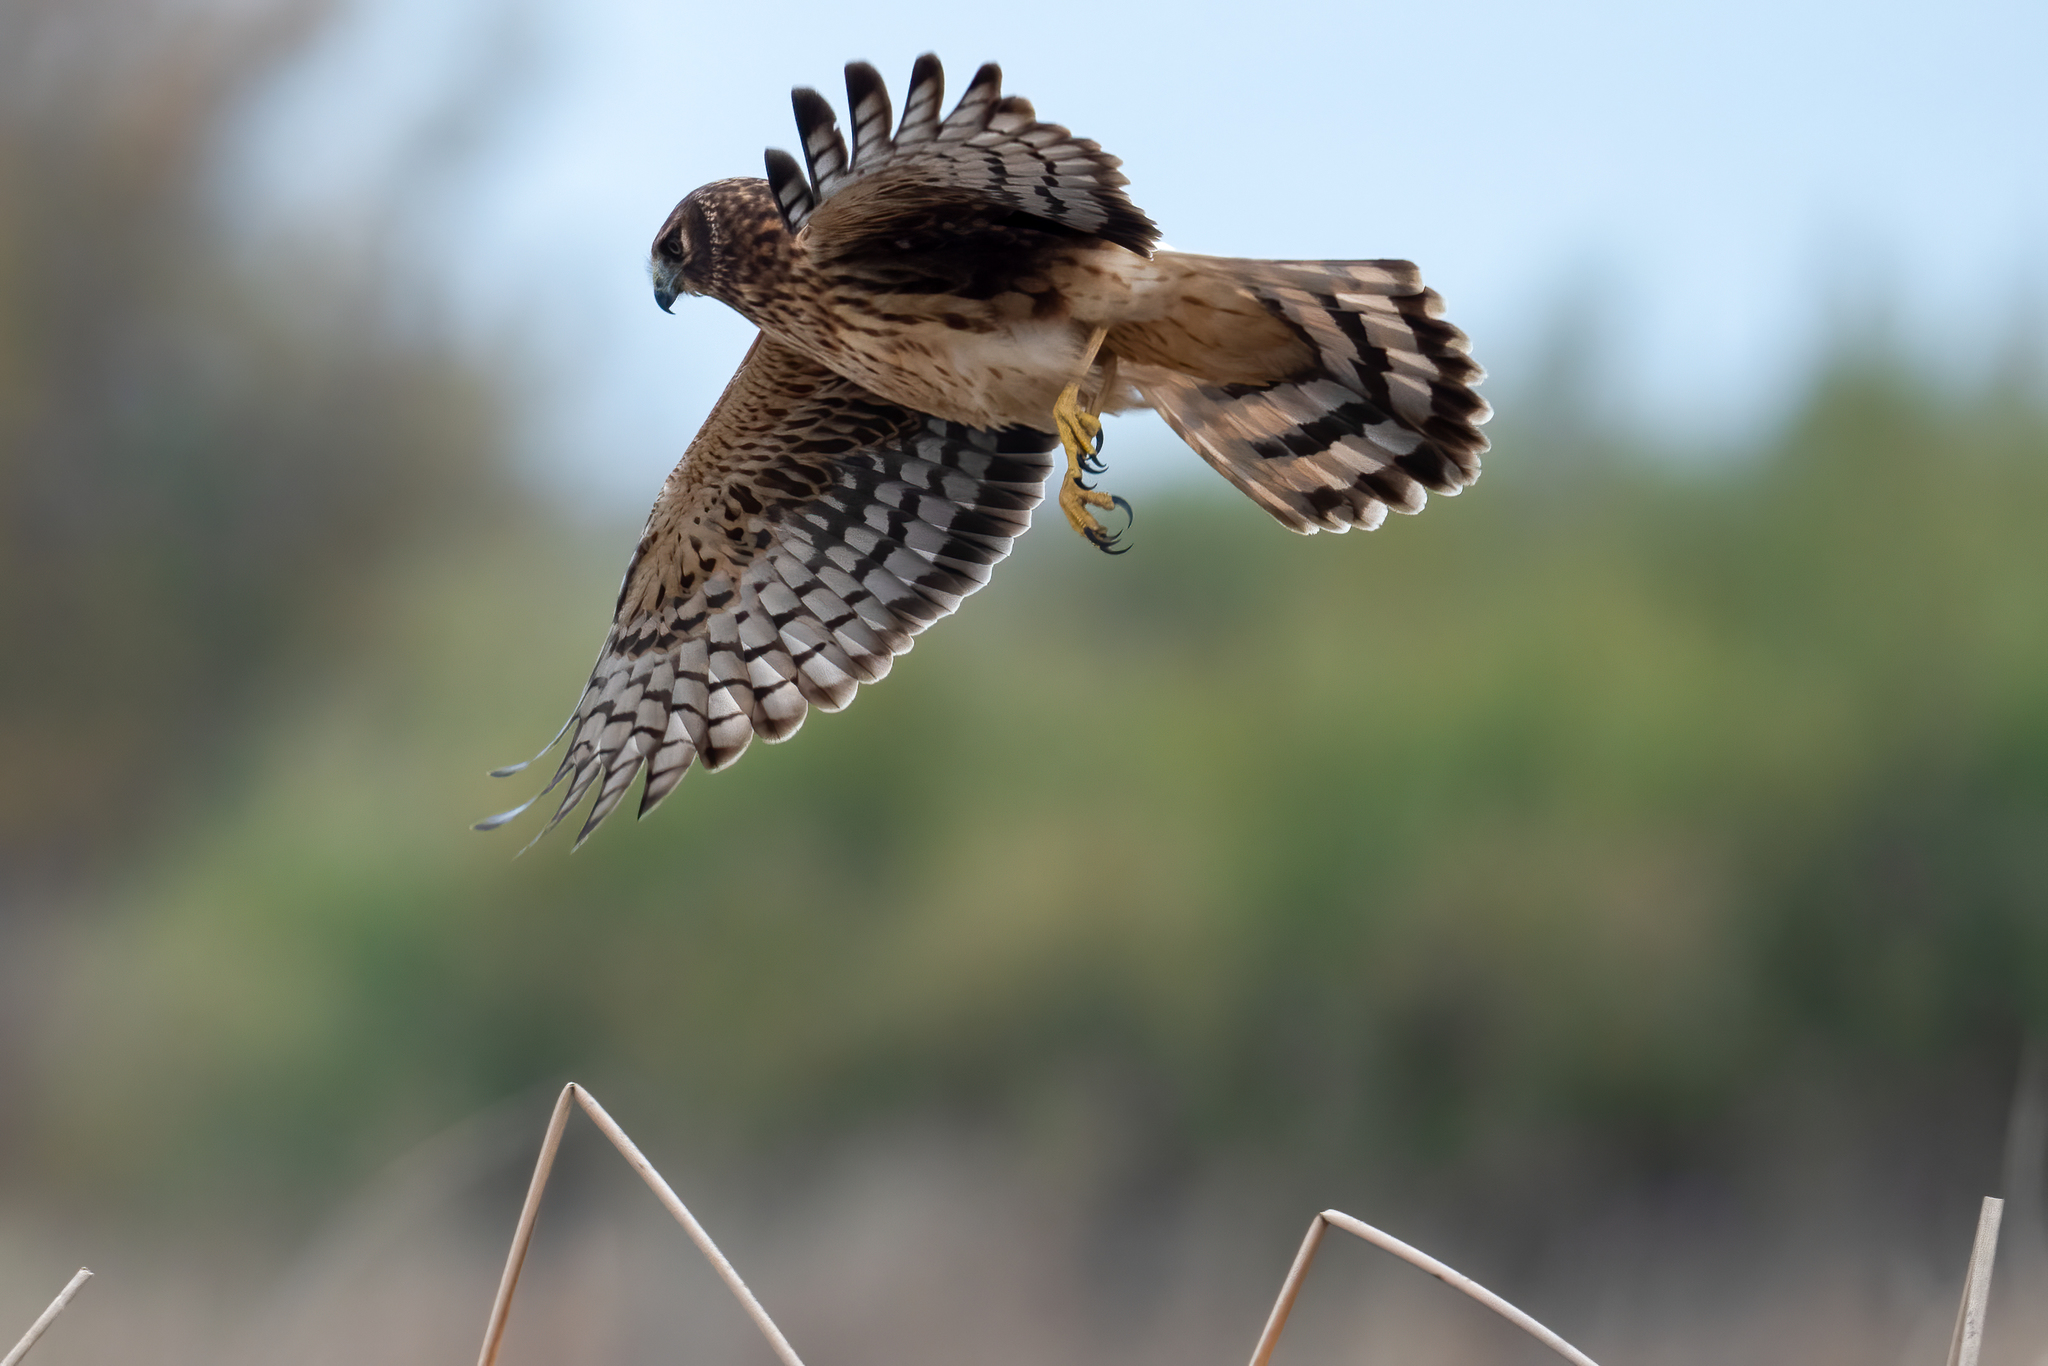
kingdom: Animalia
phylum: Chordata
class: Aves
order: Accipitriformes
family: Accipitridae
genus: Circus
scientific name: Circus cyaneus
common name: Hen harrier
